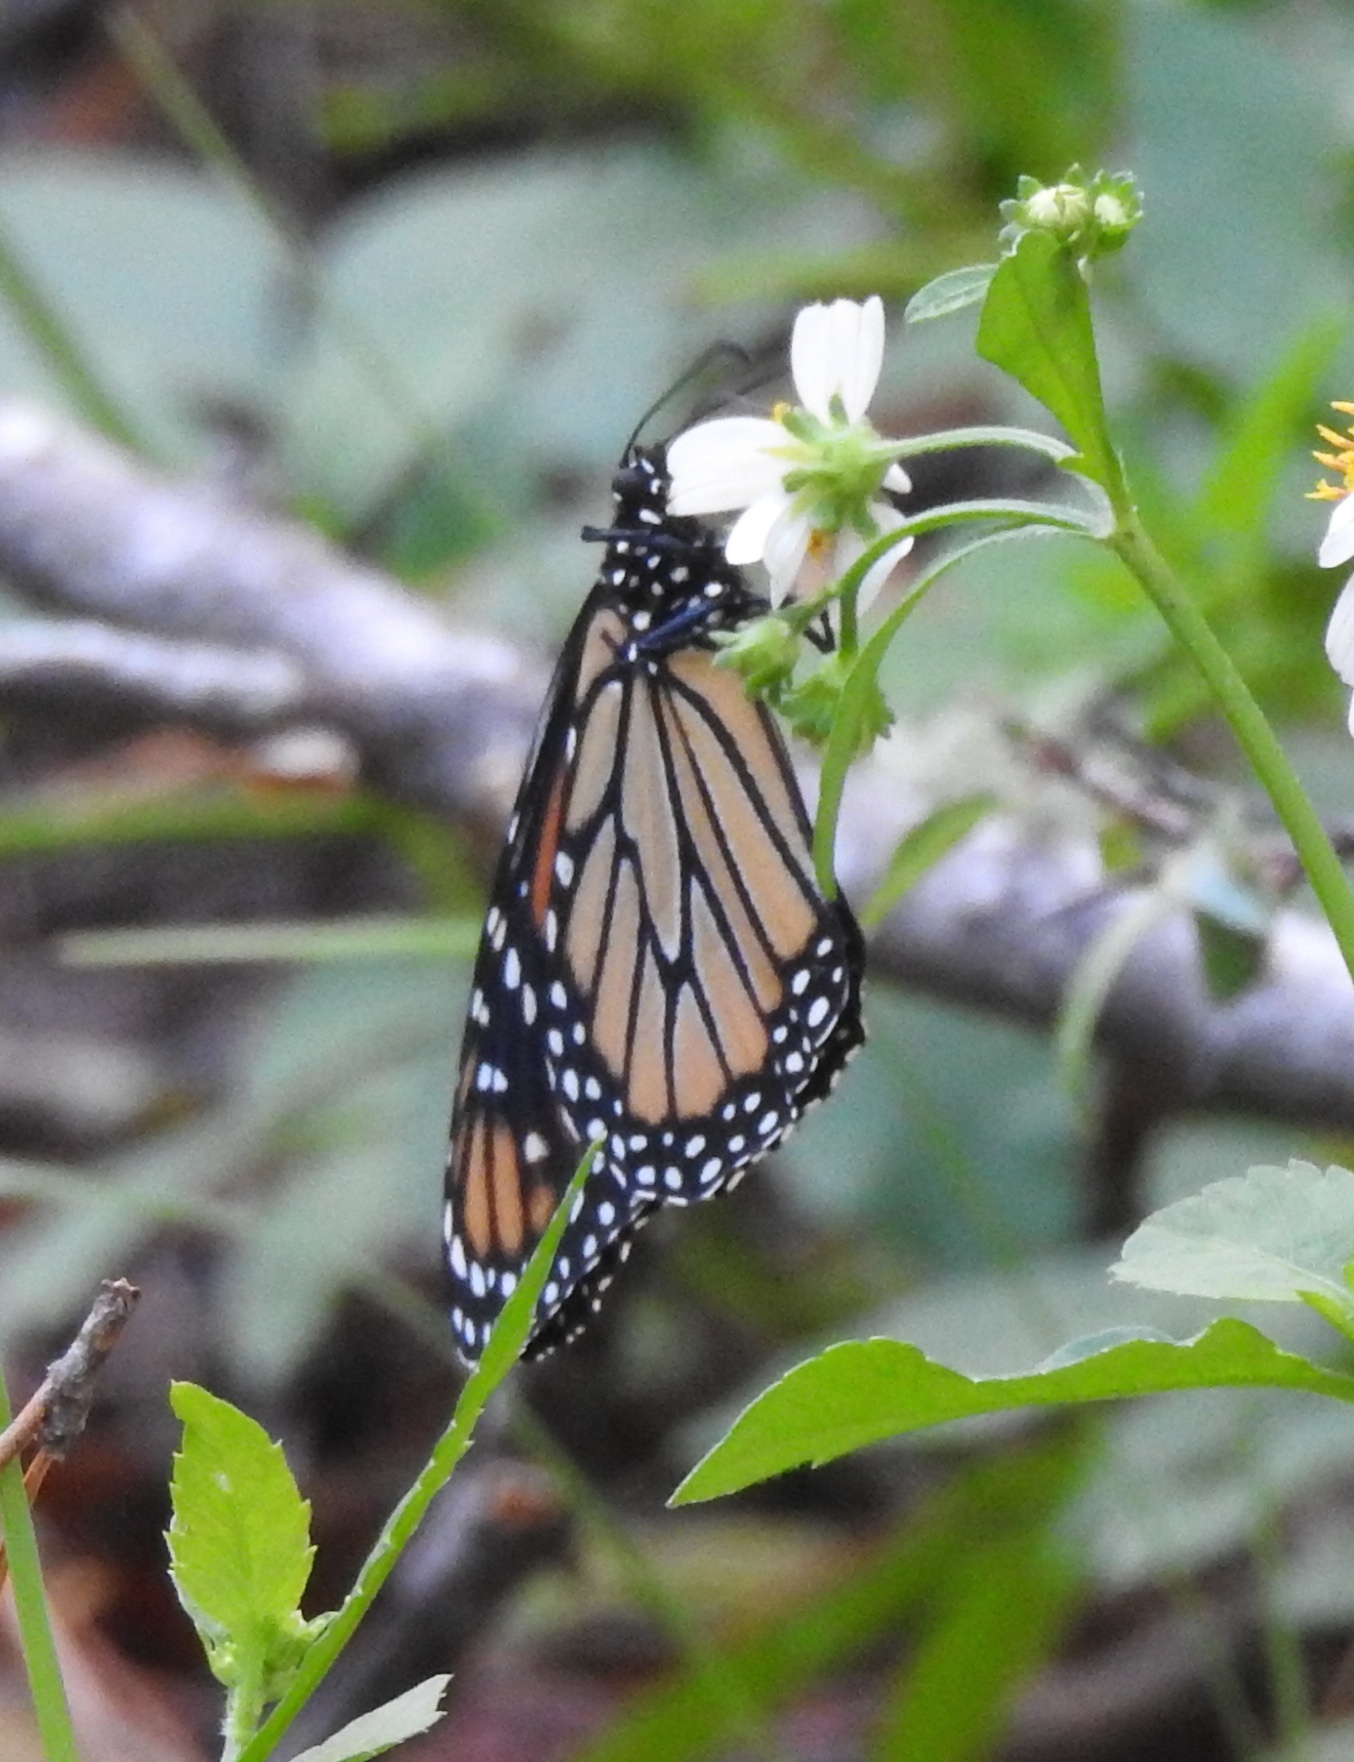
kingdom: Animalia
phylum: Arthropoda
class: Insecta
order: Lepidoptera
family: Nymphalidae
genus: Danaus
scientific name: Danaus plexippus
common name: Monarch
